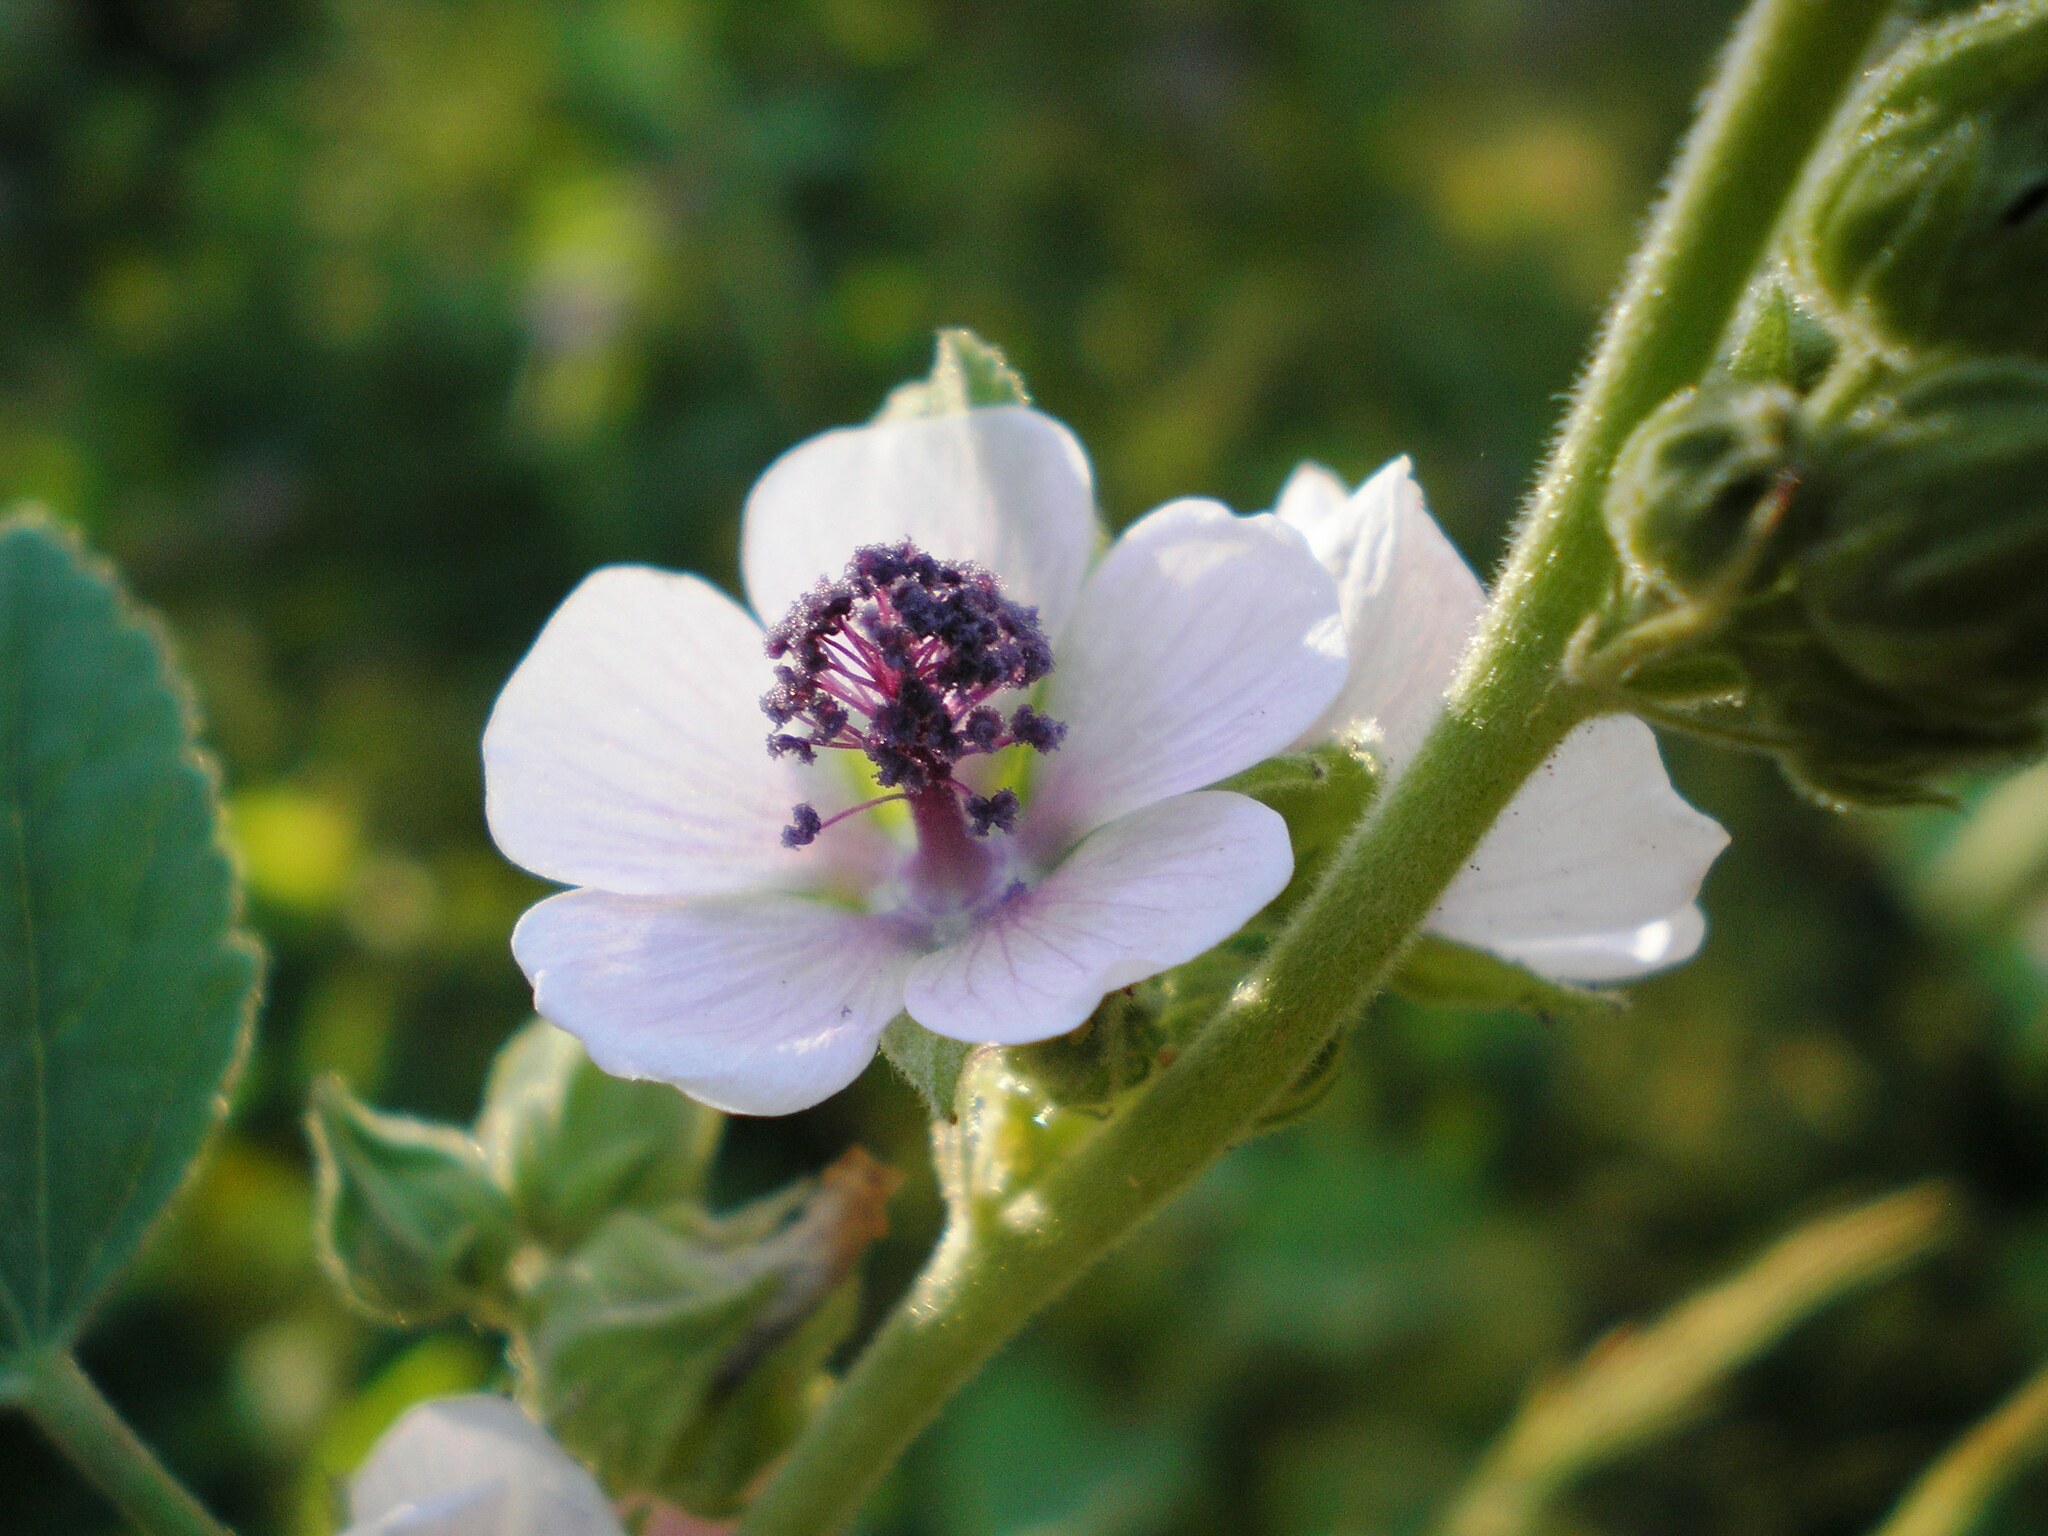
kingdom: Plantae
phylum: Tracheophyta
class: Magnoliopsida
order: Malvales
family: Malvaceae
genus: Althaea
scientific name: Althaea officinalis
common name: Marsh-mallow
